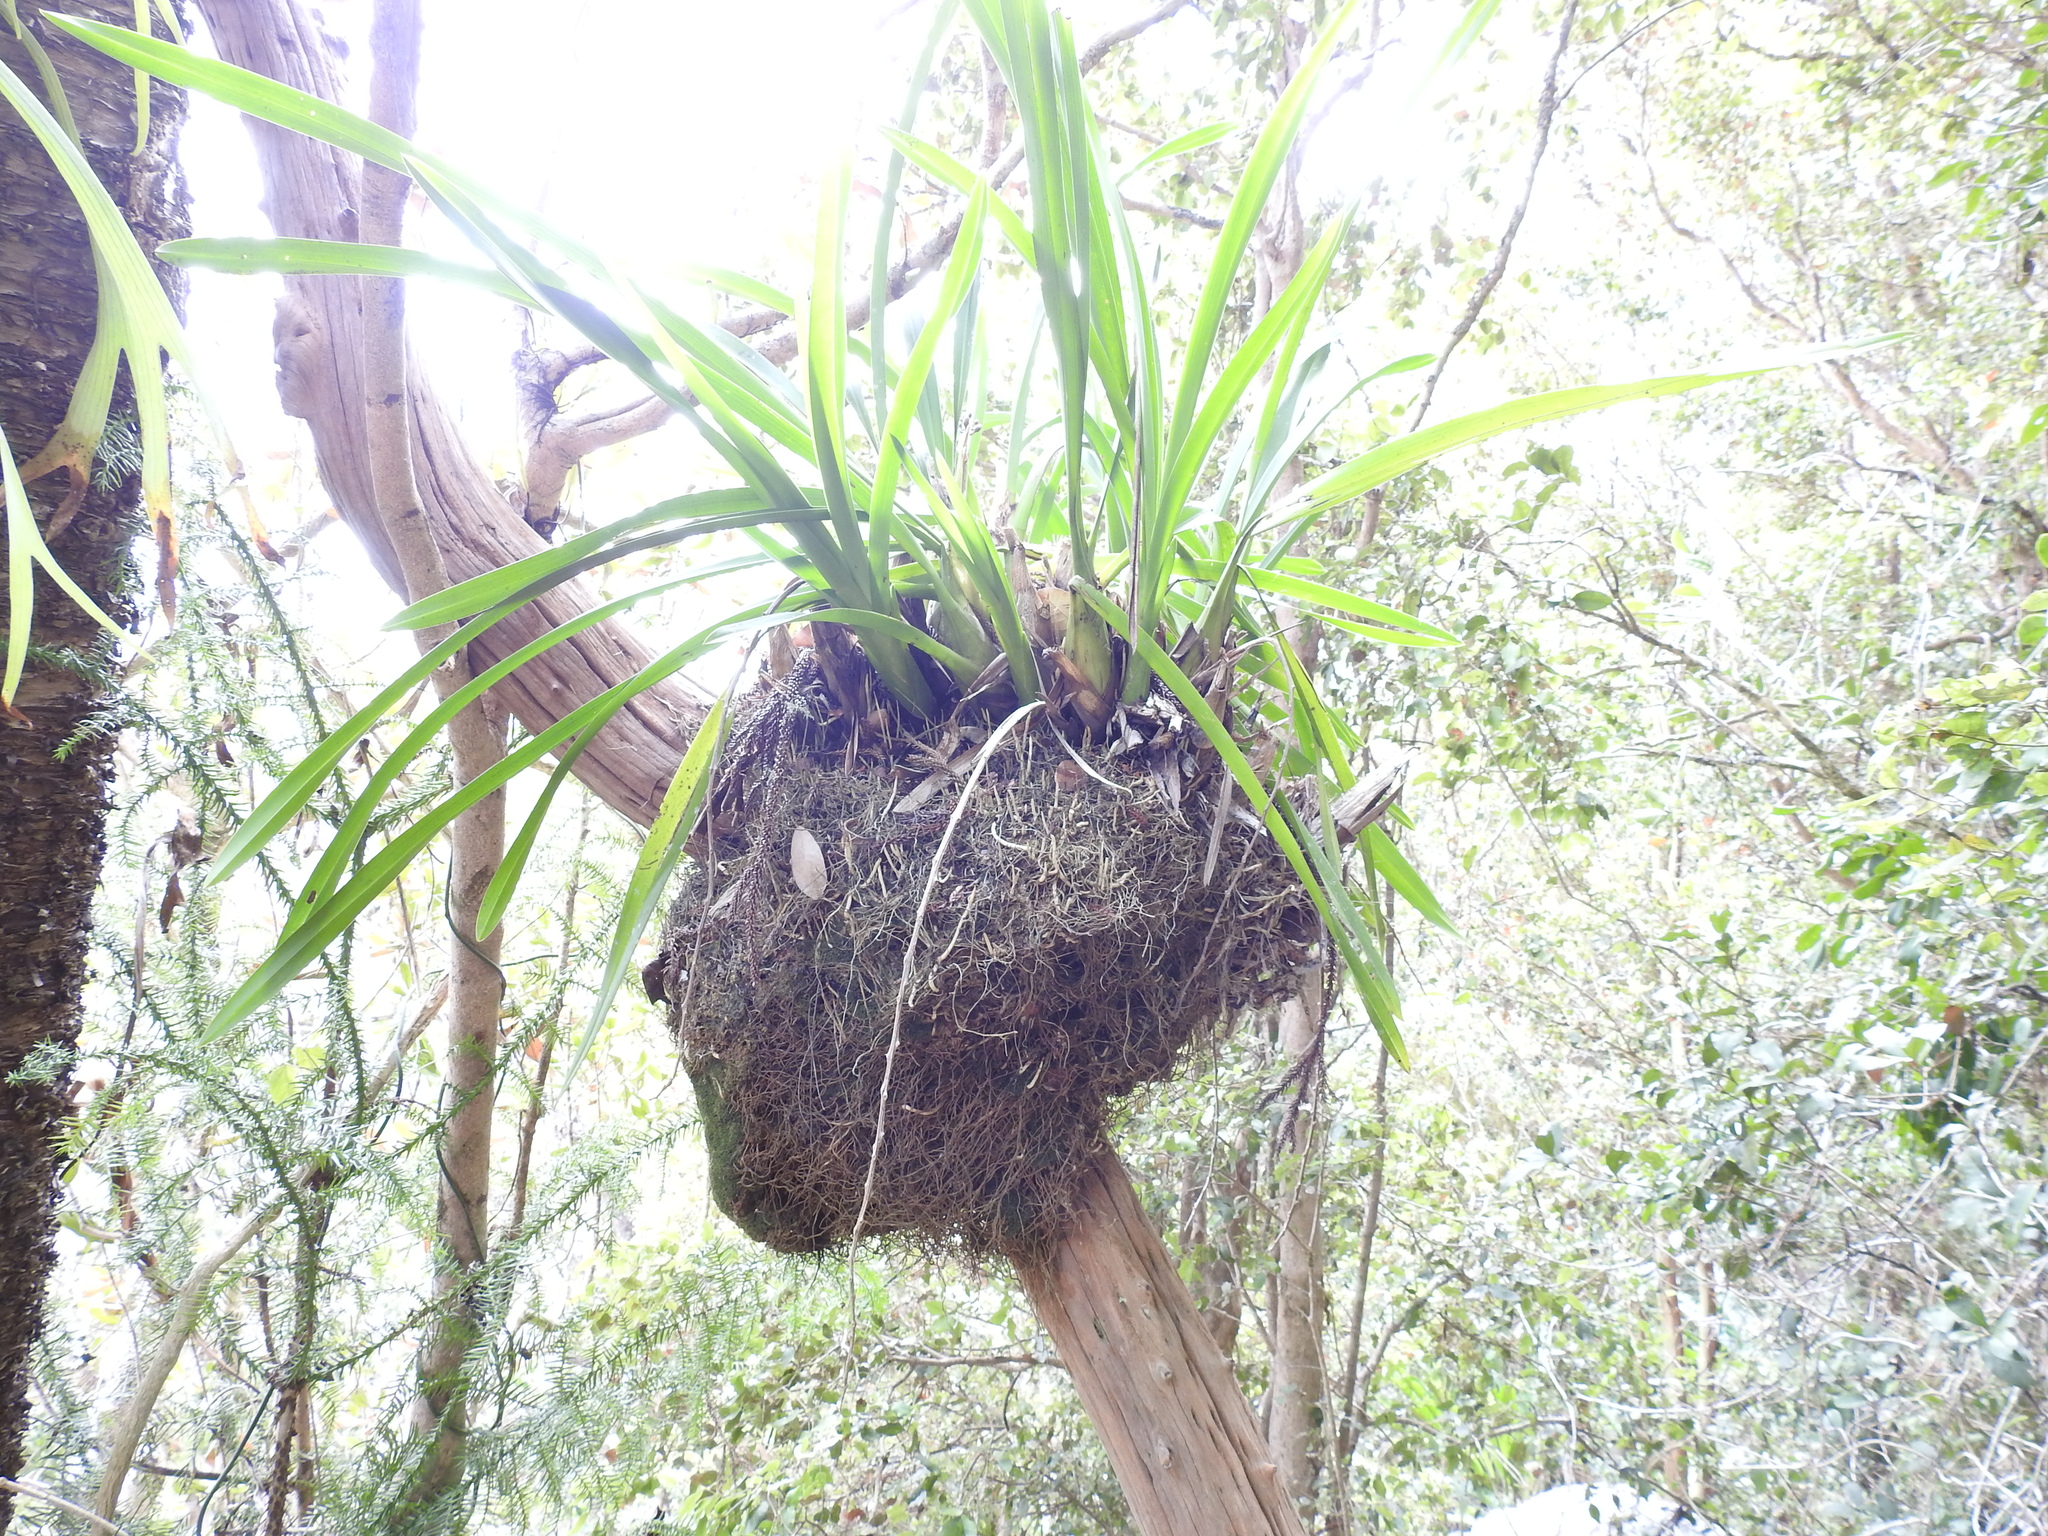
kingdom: Plantae
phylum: Tracheophyta
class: Liliopsida
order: Asparagales
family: Orchidaceae
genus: Cymbidium
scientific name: Cymbidium madidum
